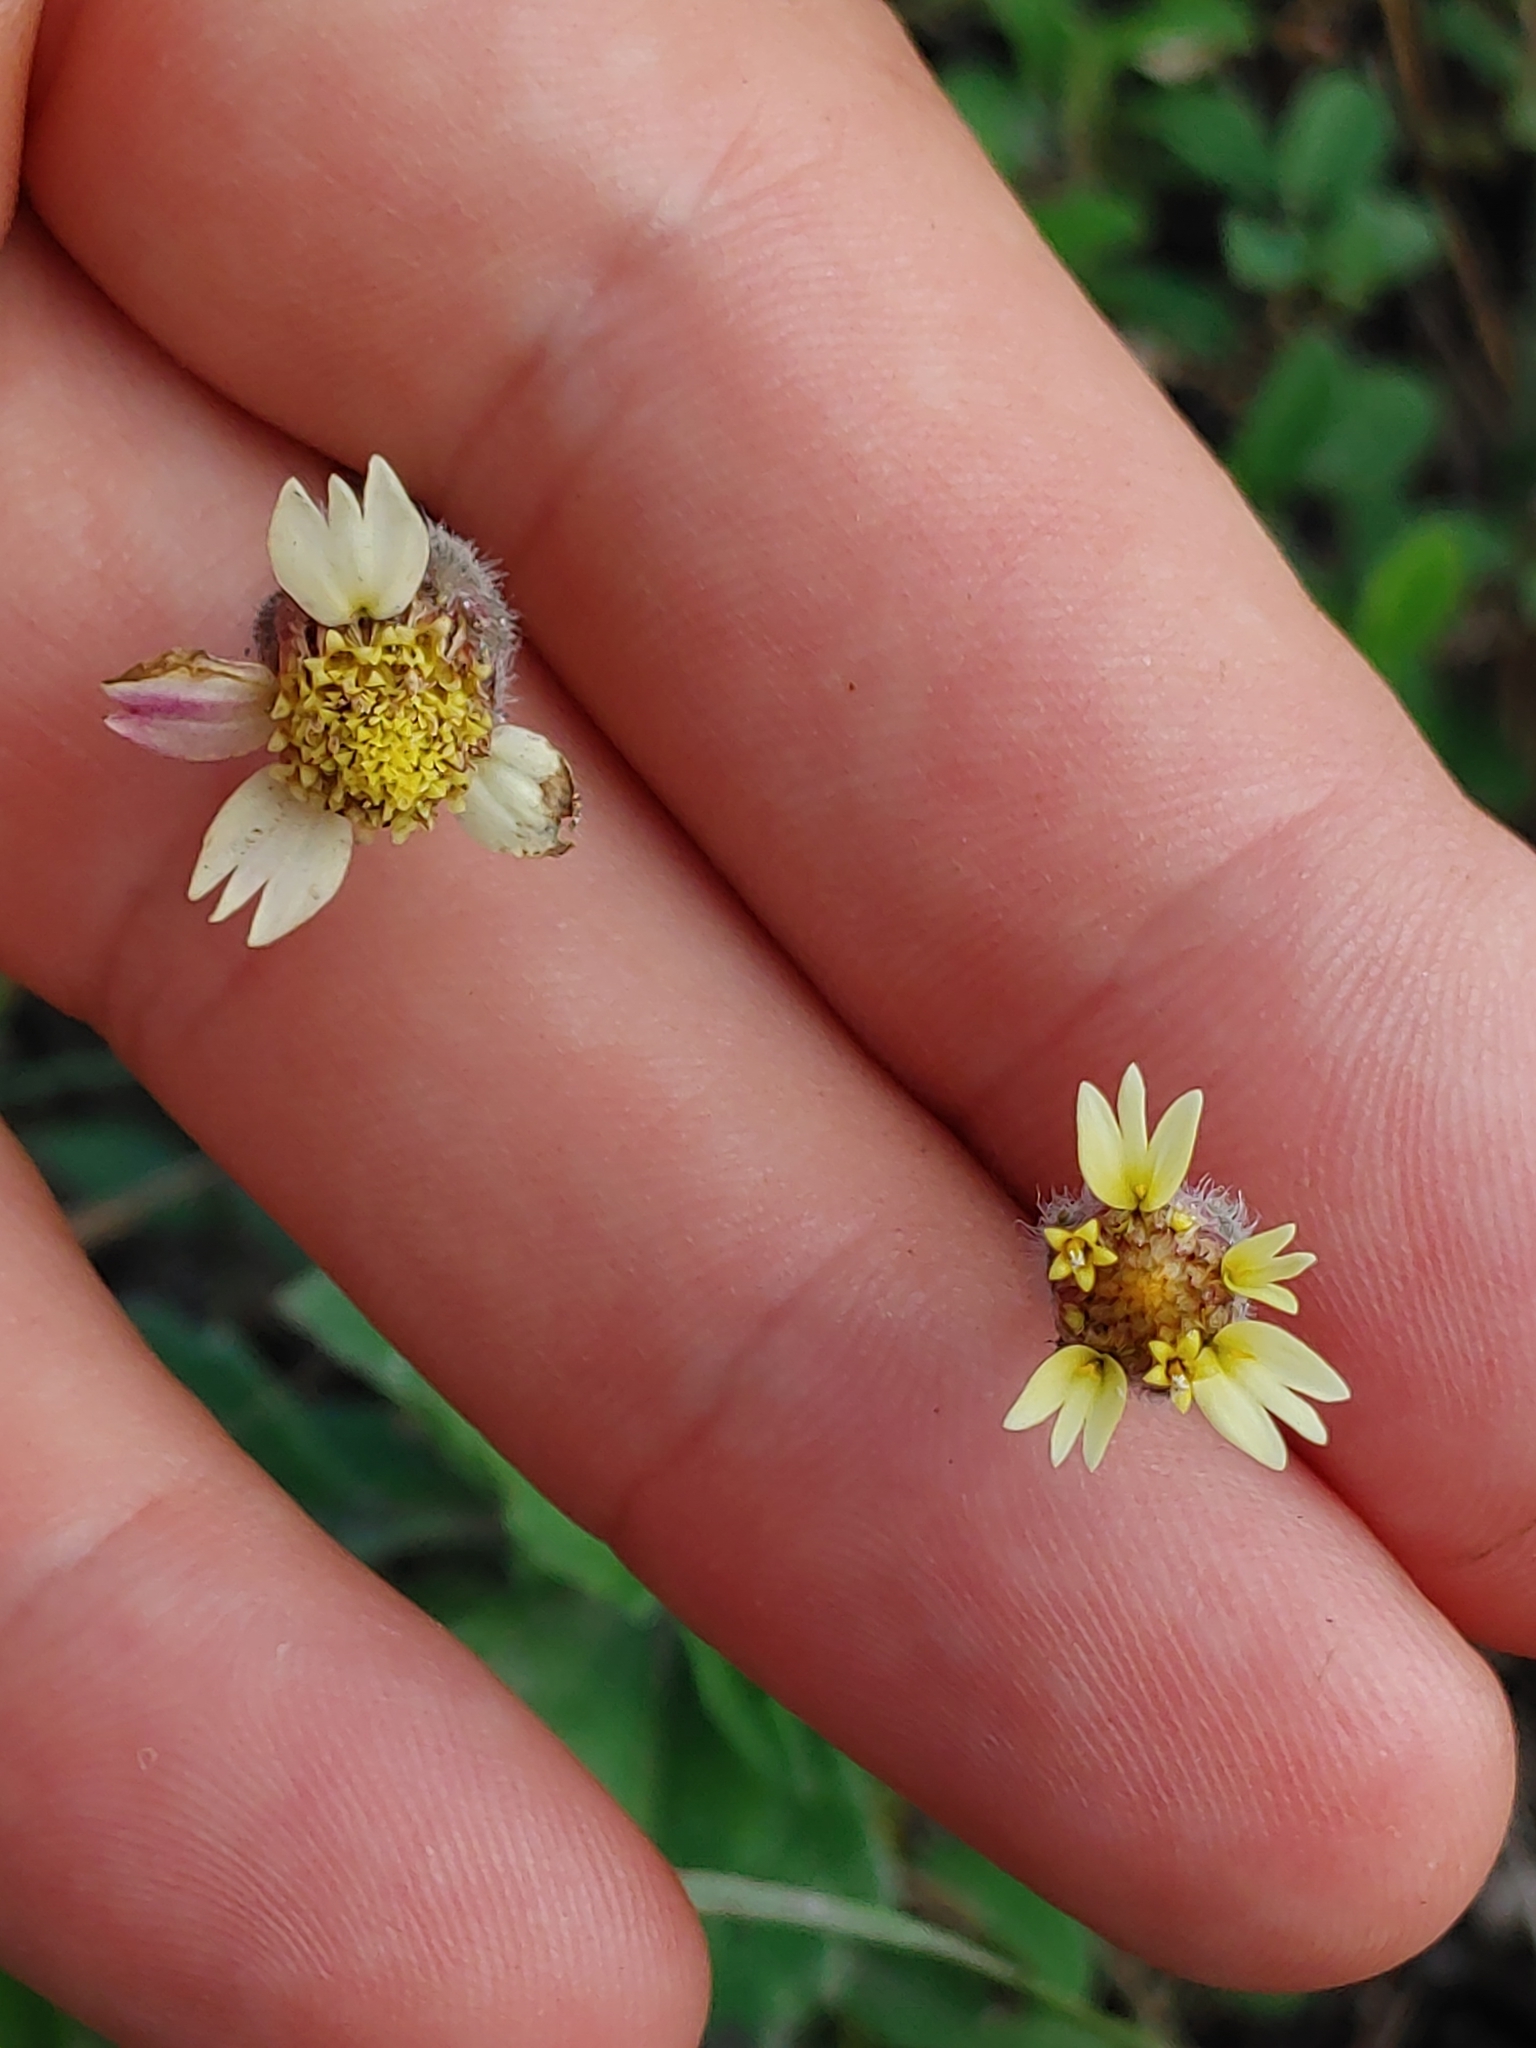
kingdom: Plantae
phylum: Tracheophyta
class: Magnoliopsida
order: Asterales
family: Asteraceae
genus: Tridax
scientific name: Tridax procumbens
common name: Coatbuttons
